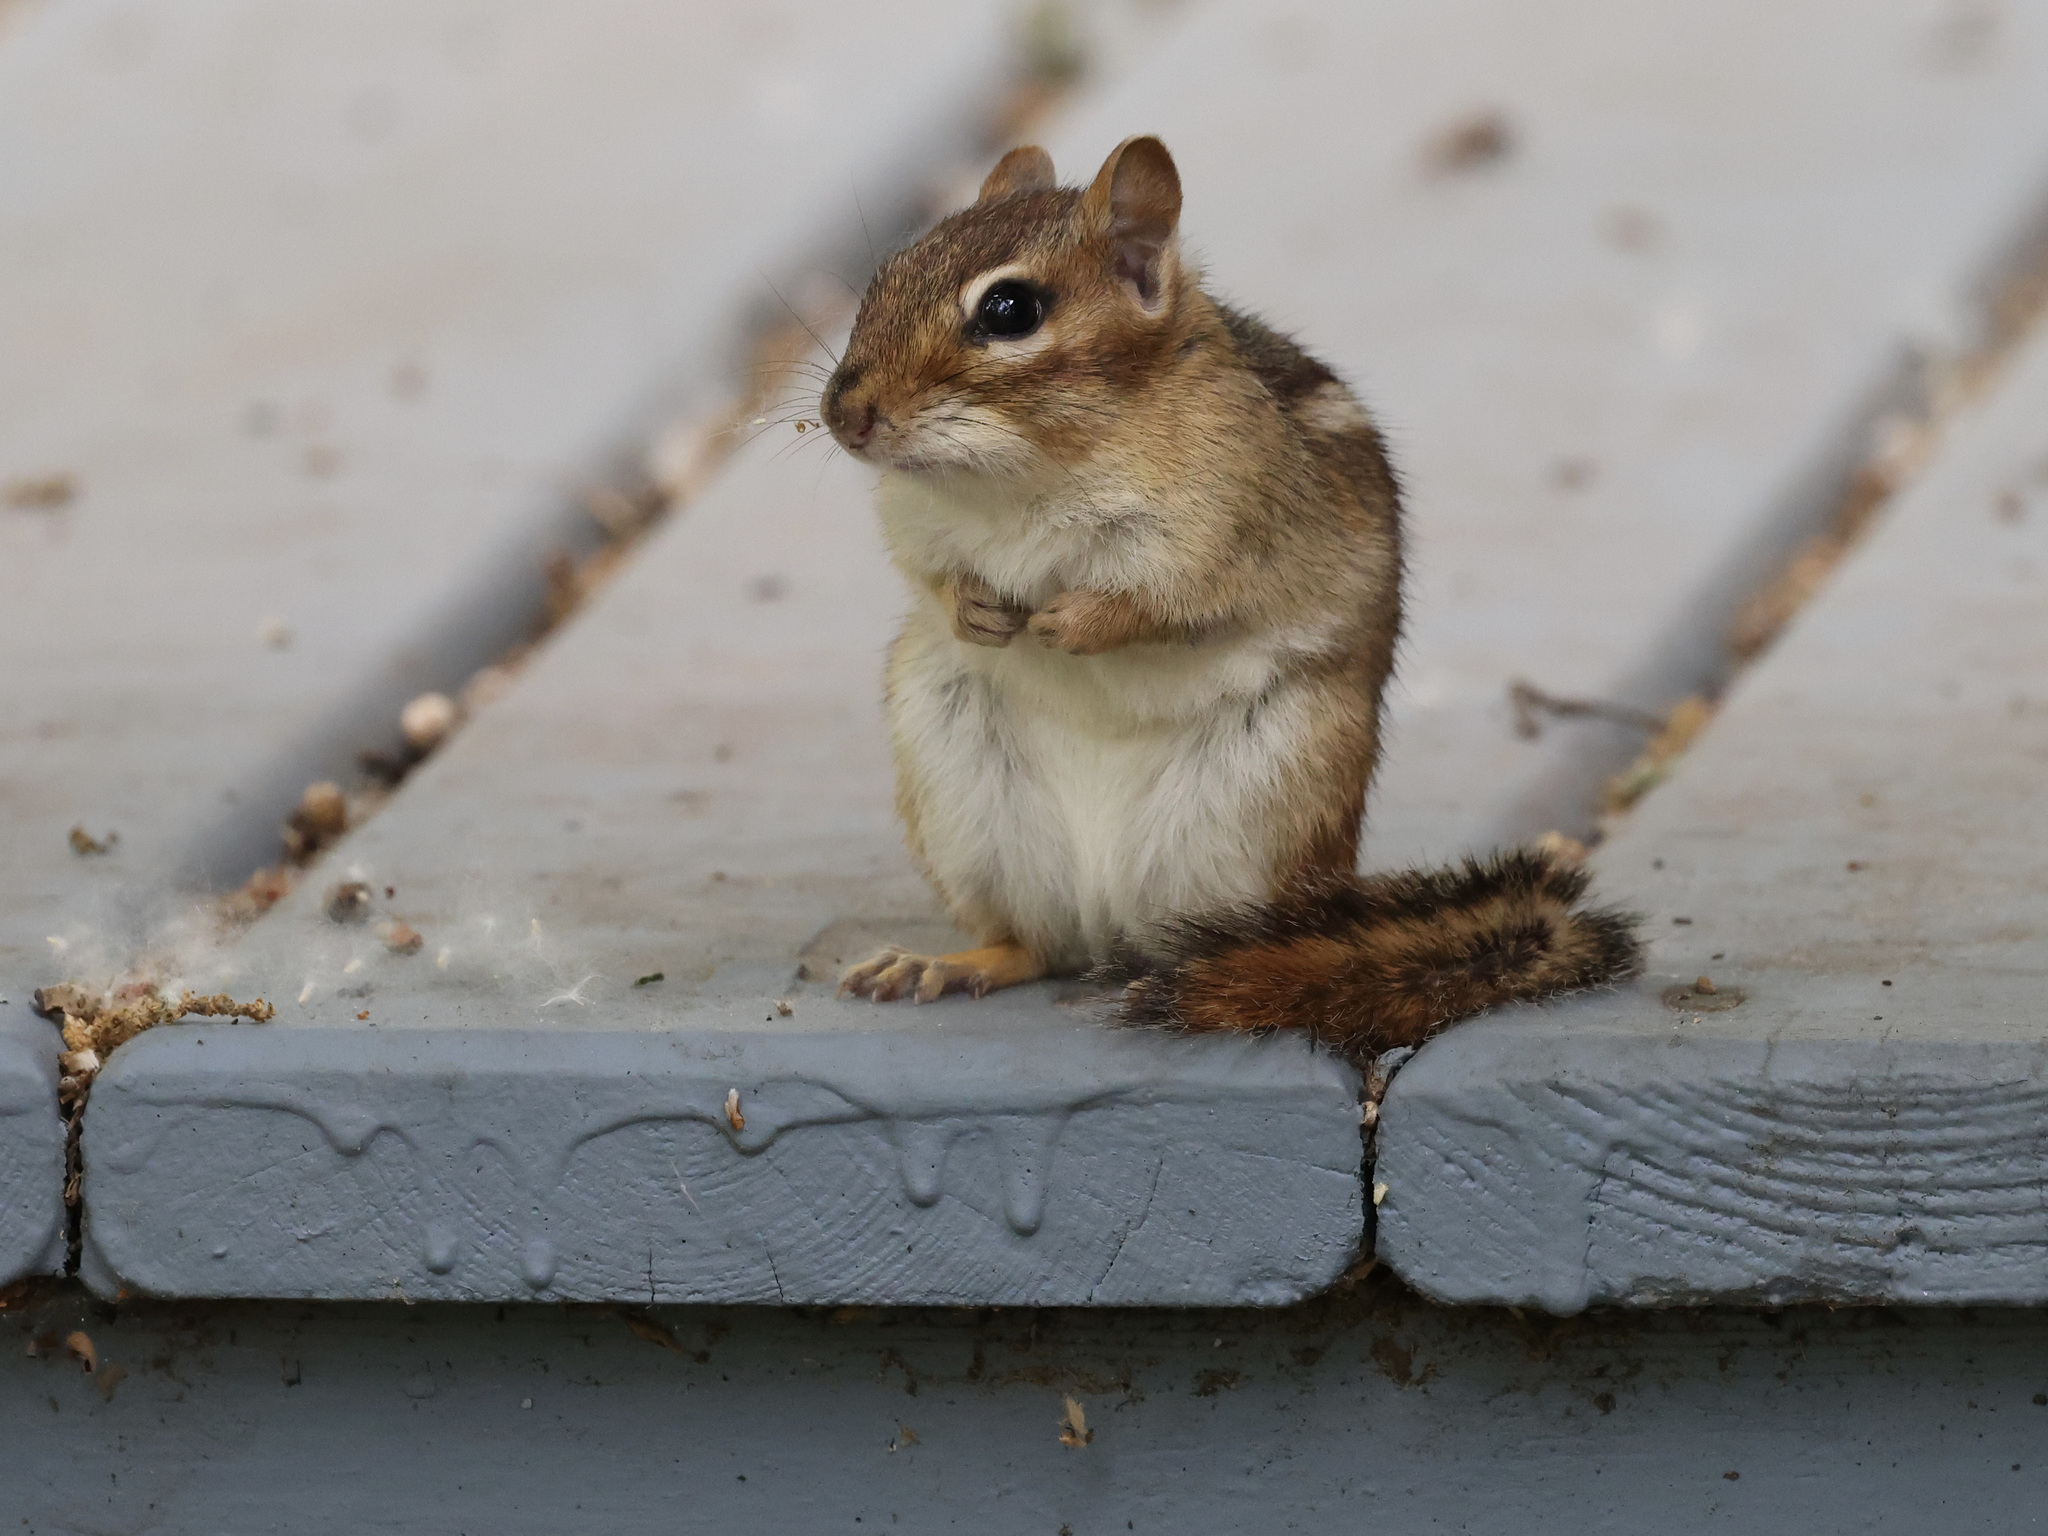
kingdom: Animalia
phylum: Chordata
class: Mammalia
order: Rodentia
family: Sciuridae
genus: Tamias
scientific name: Tamias striatus
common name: Eastern chipmunk
